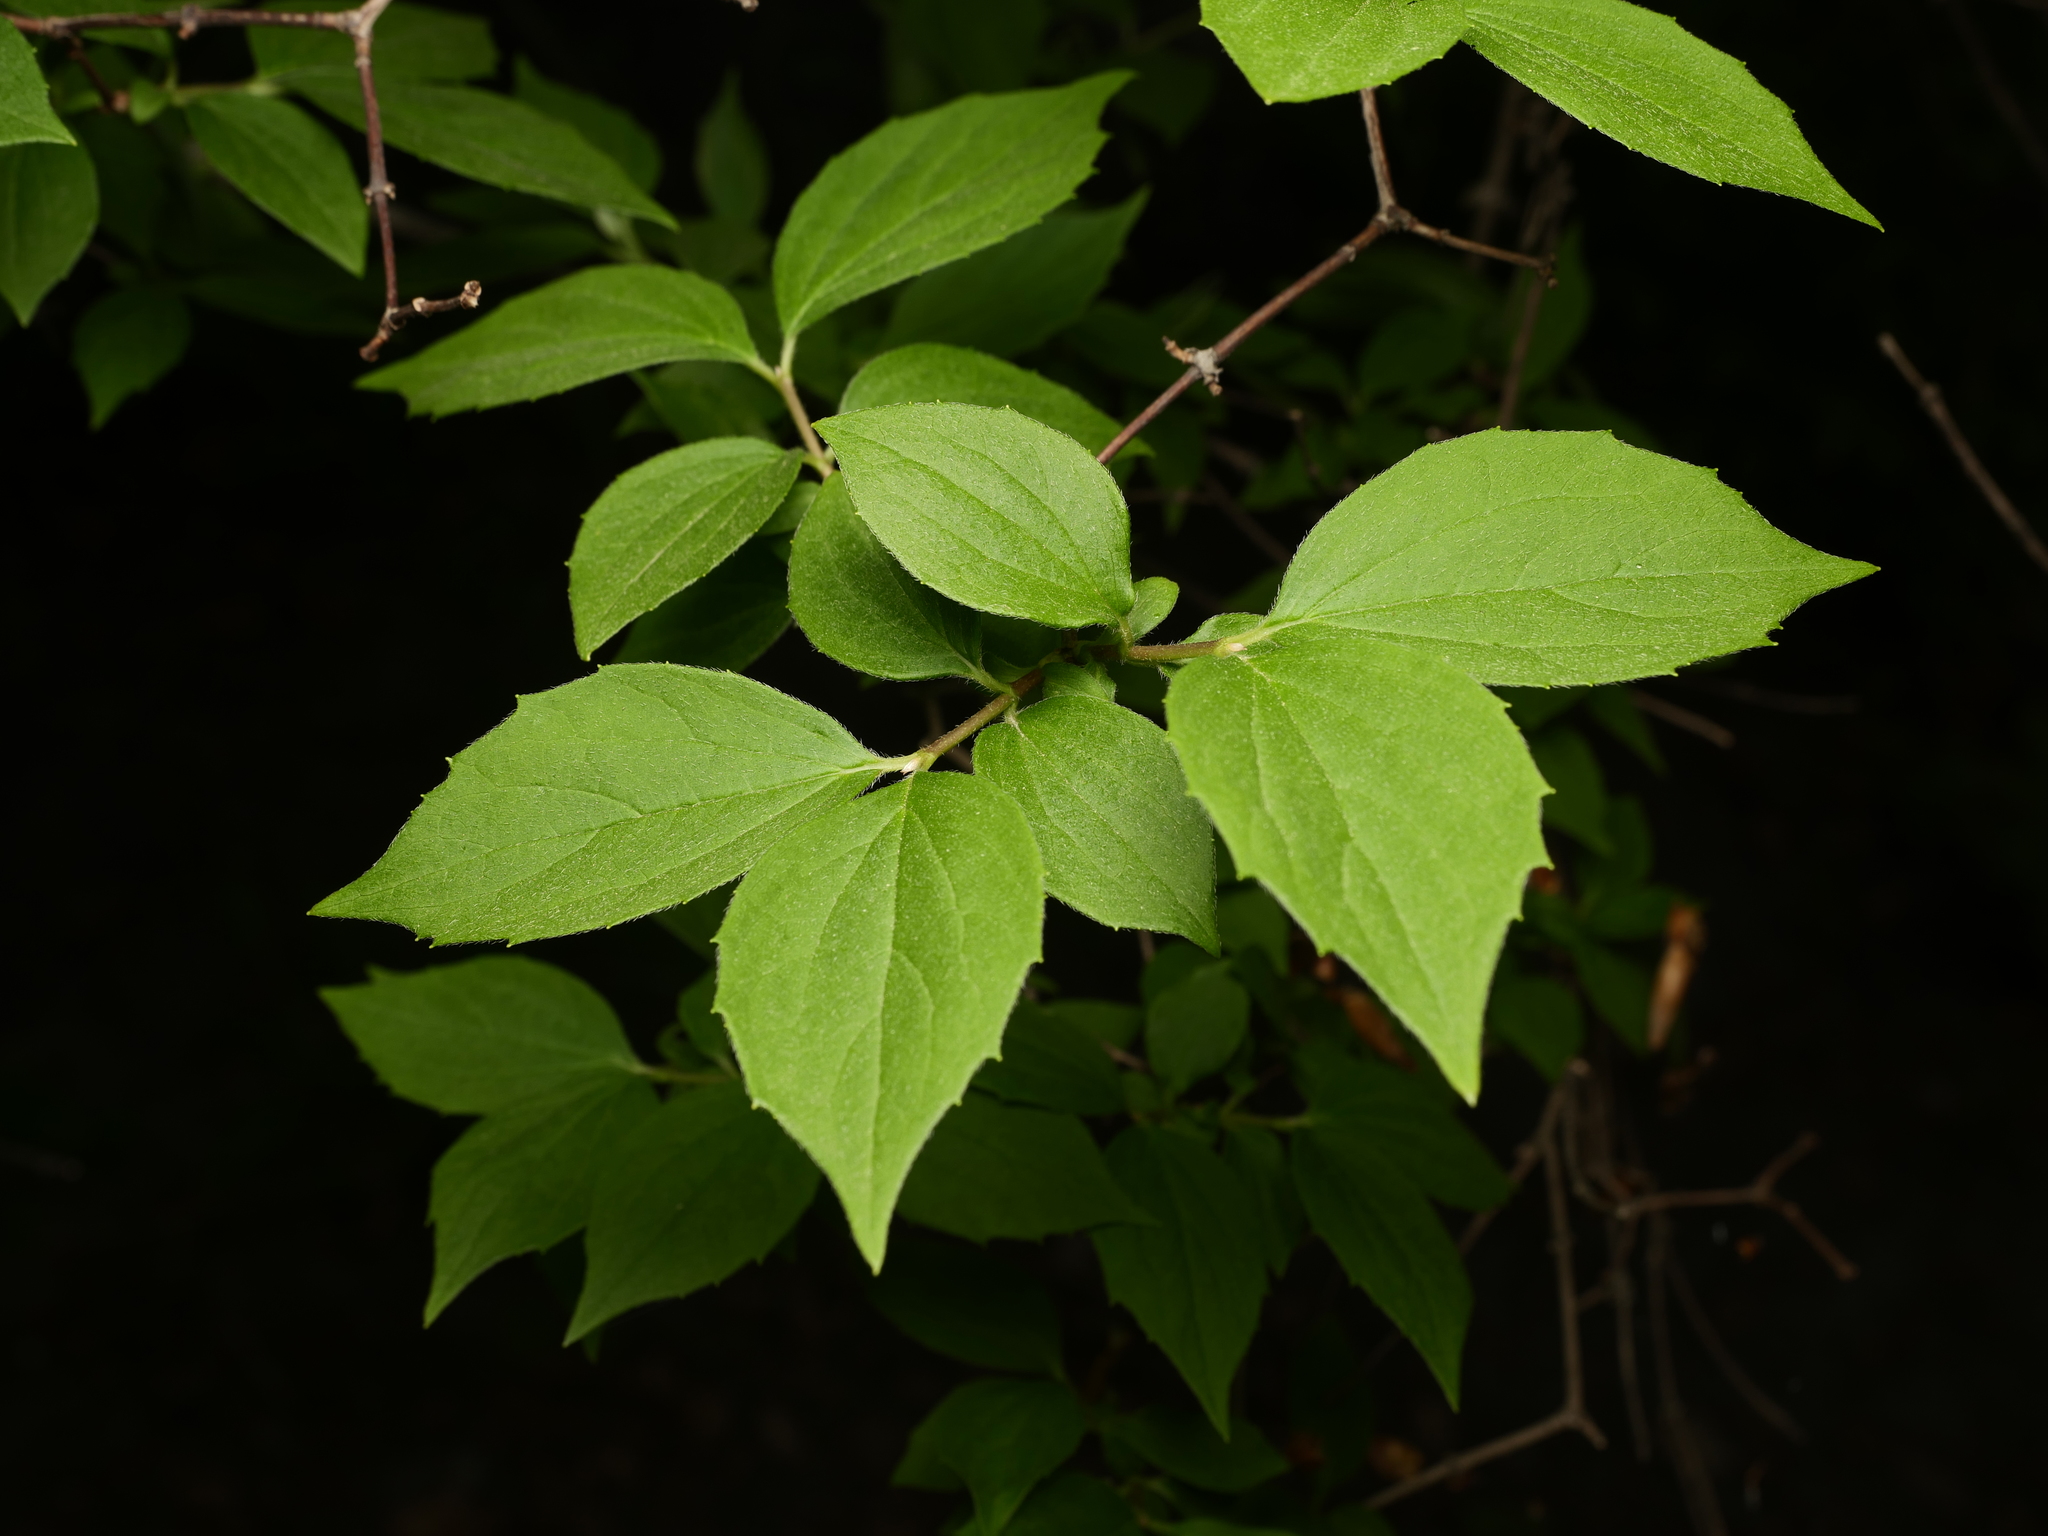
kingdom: Plantae
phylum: Tracheophyta
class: Magnoliopsida
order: Cornales
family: Hydrangeaceae
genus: Philadelphus
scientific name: Philadelphus coronarius
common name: Mock orange
